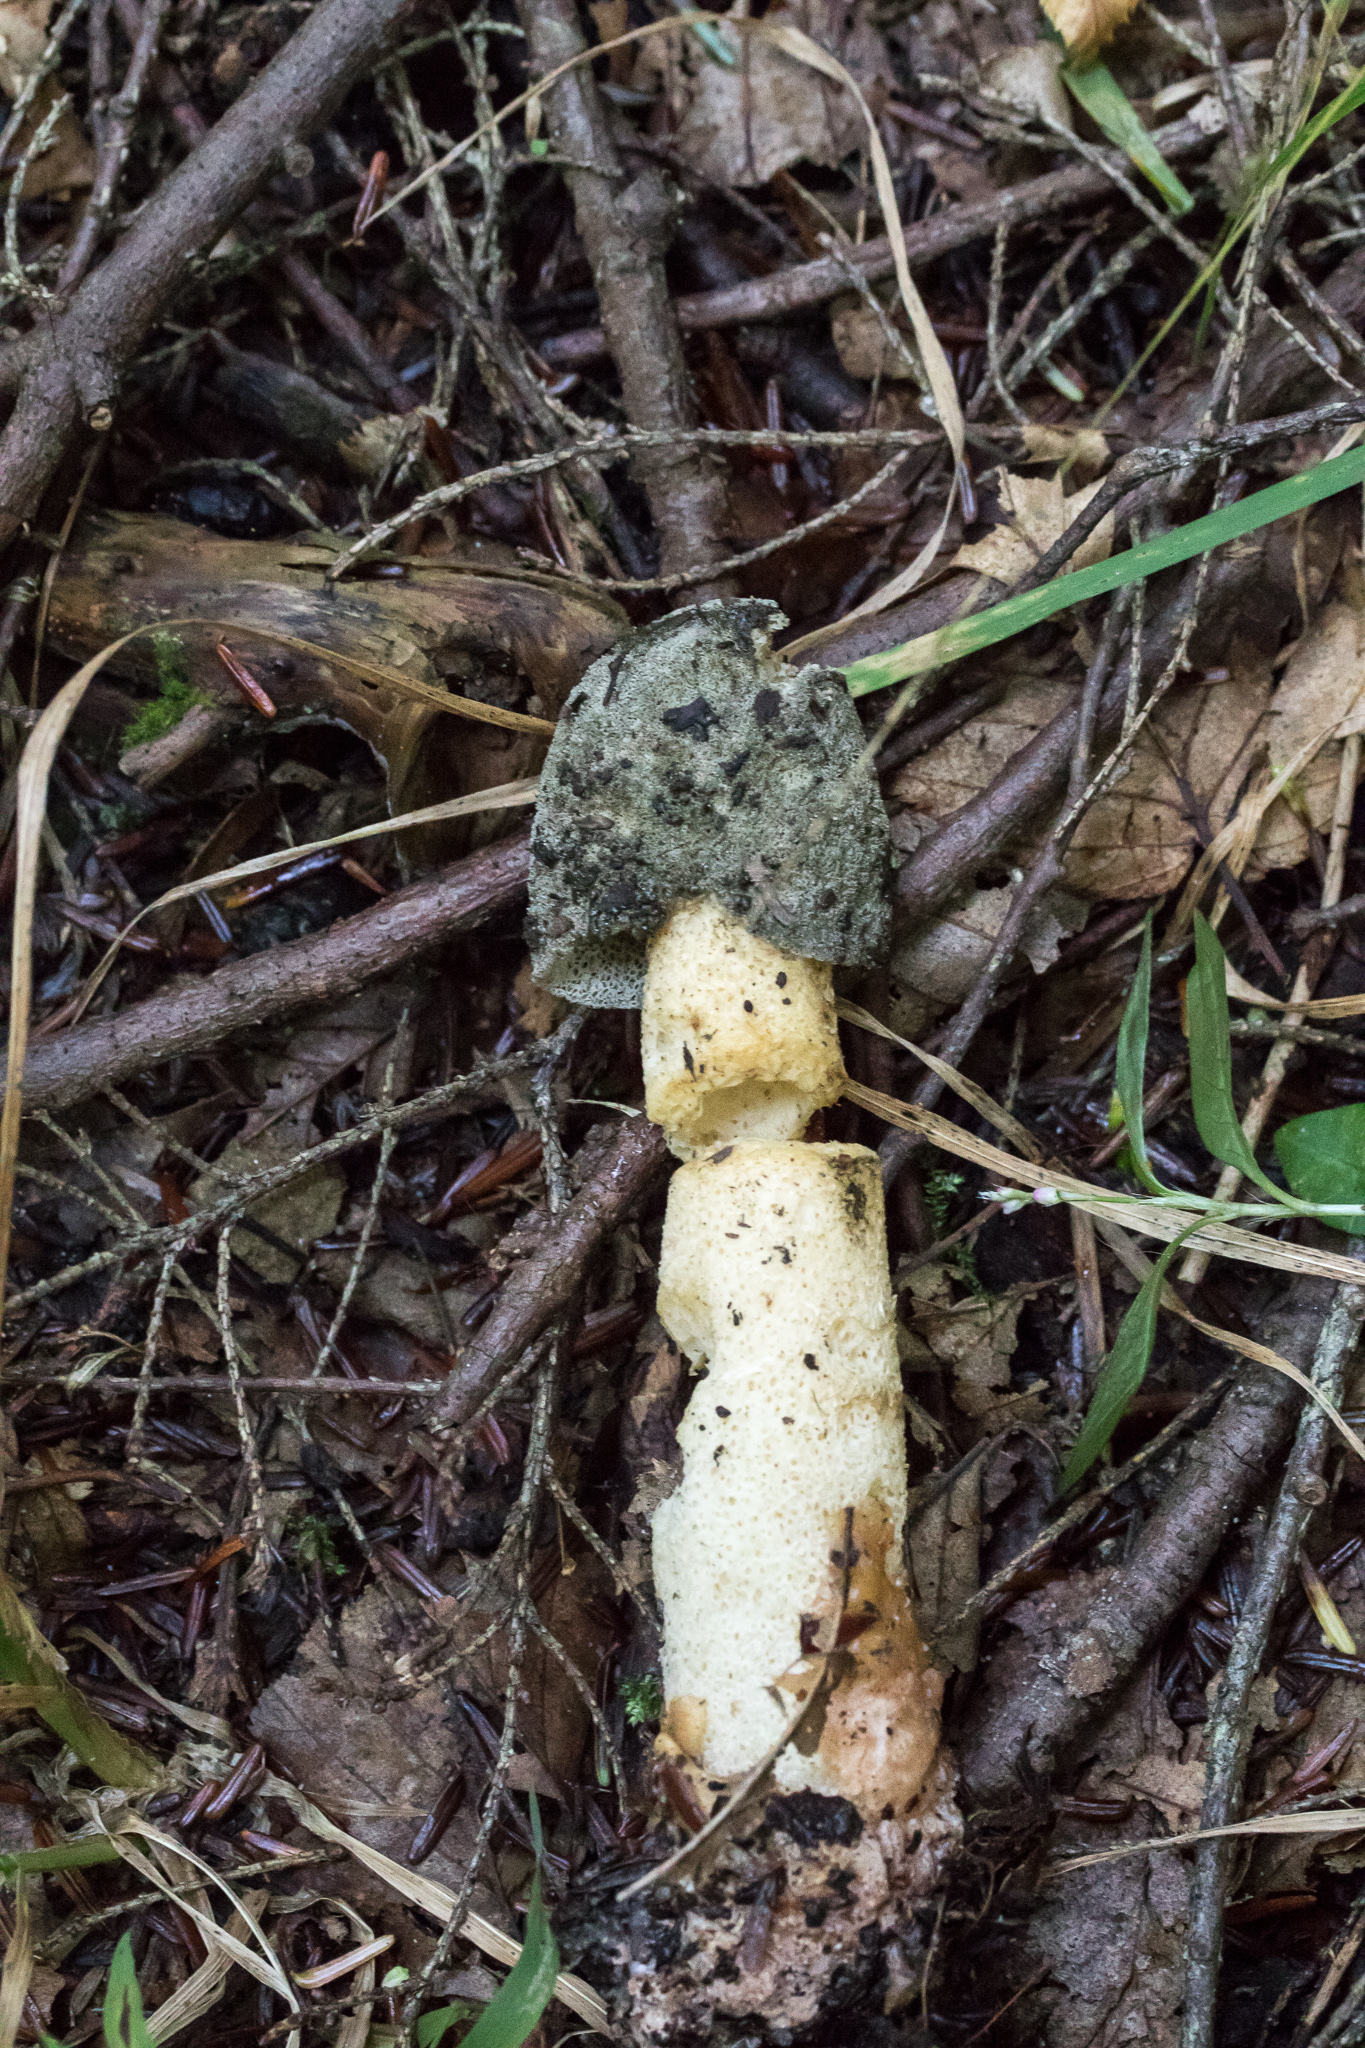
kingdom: Fungi
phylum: Basidiomycota
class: Agaricomycetes
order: Phallales
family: Phallaceae
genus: Phallus
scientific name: Phallus ravenelii
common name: Ravenel's stinkhorn
